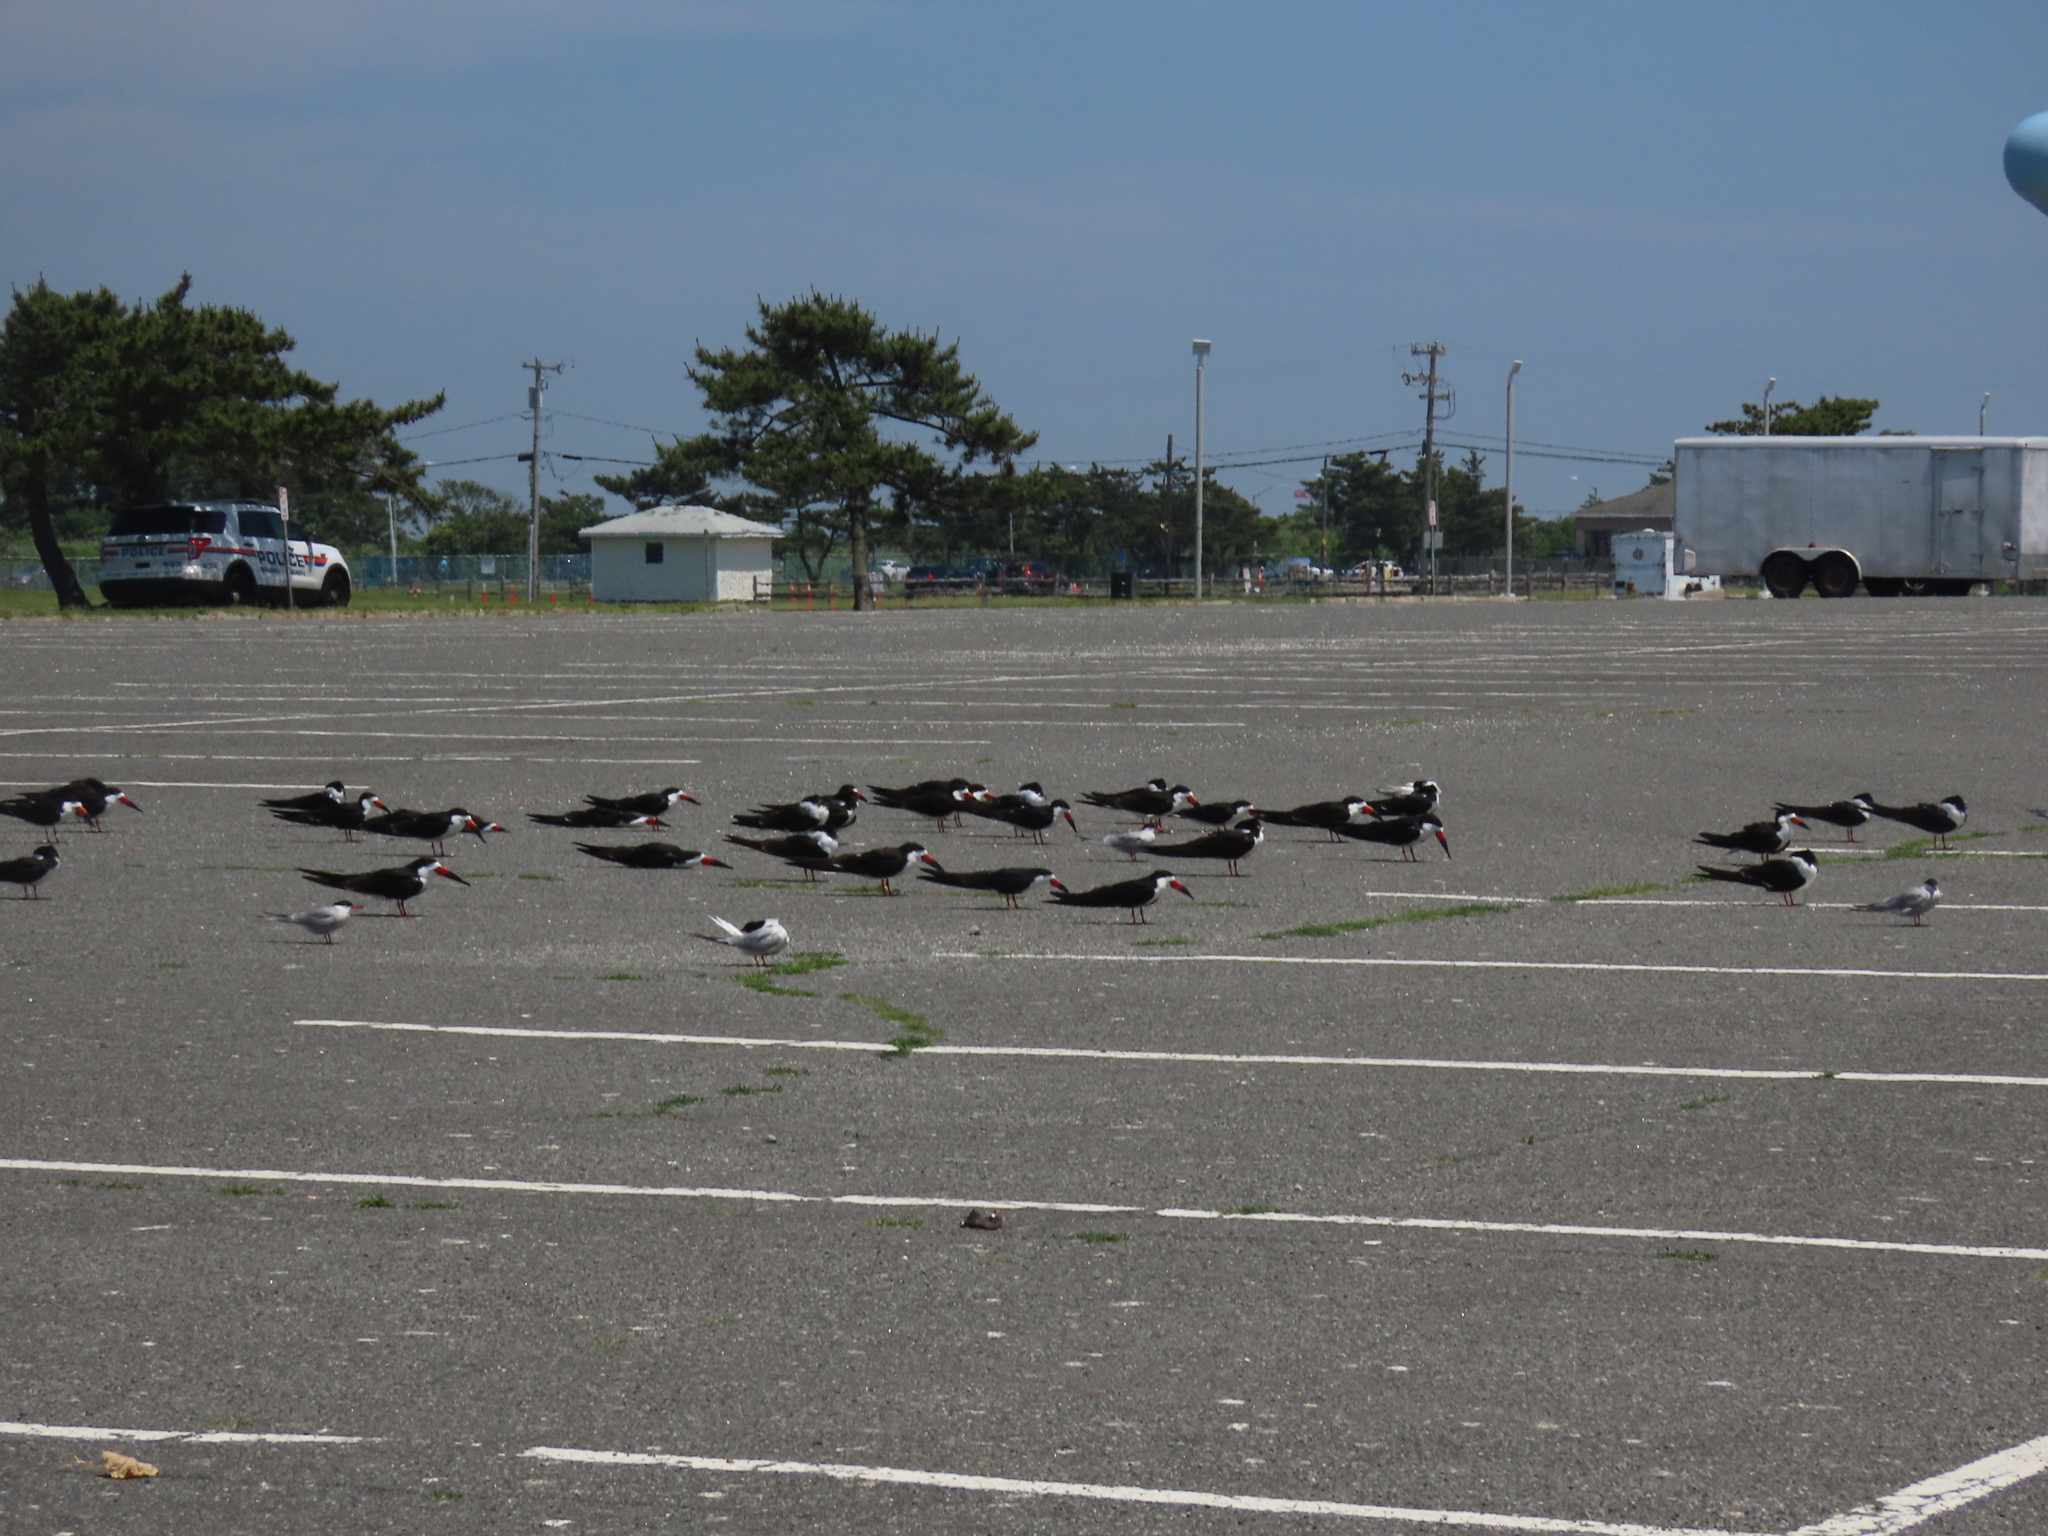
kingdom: Animalia
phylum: Chordata
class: Aves
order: Charadriiformes
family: Laridae
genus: Rynchops
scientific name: Rynchops niger
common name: Black skimmer
